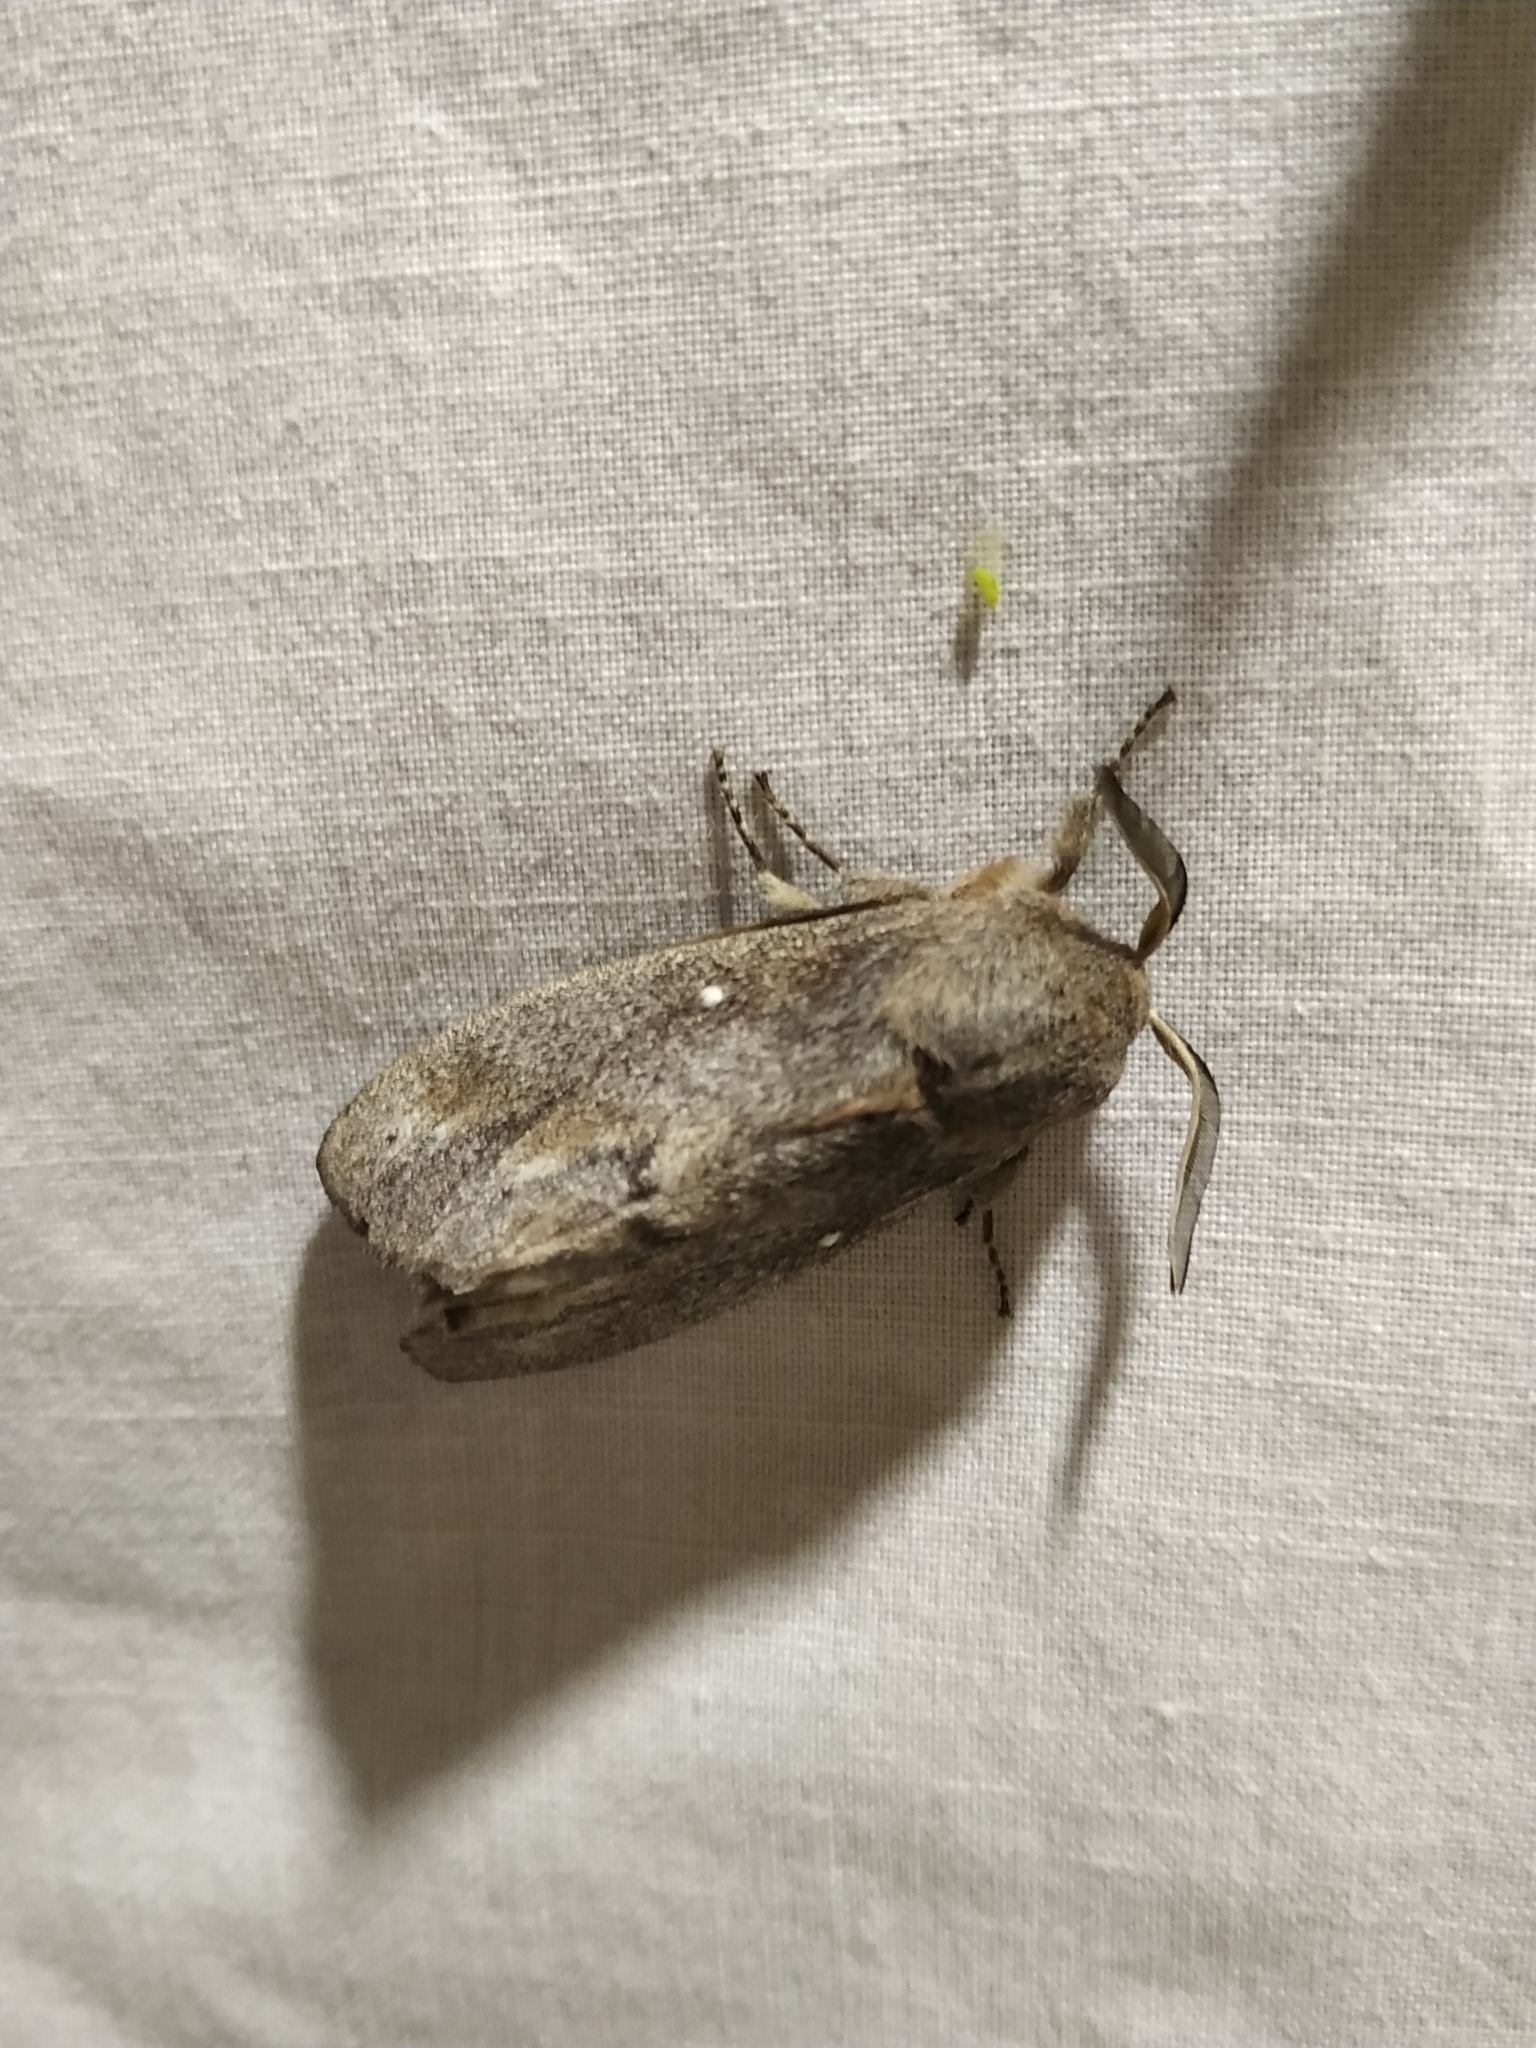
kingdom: Animalia
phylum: Arthropoda
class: Insecta
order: Lepidoptera
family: Lasiocampidae
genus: Dendrolimus
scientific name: Dendrolimus pini
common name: Pine-tree lappet
